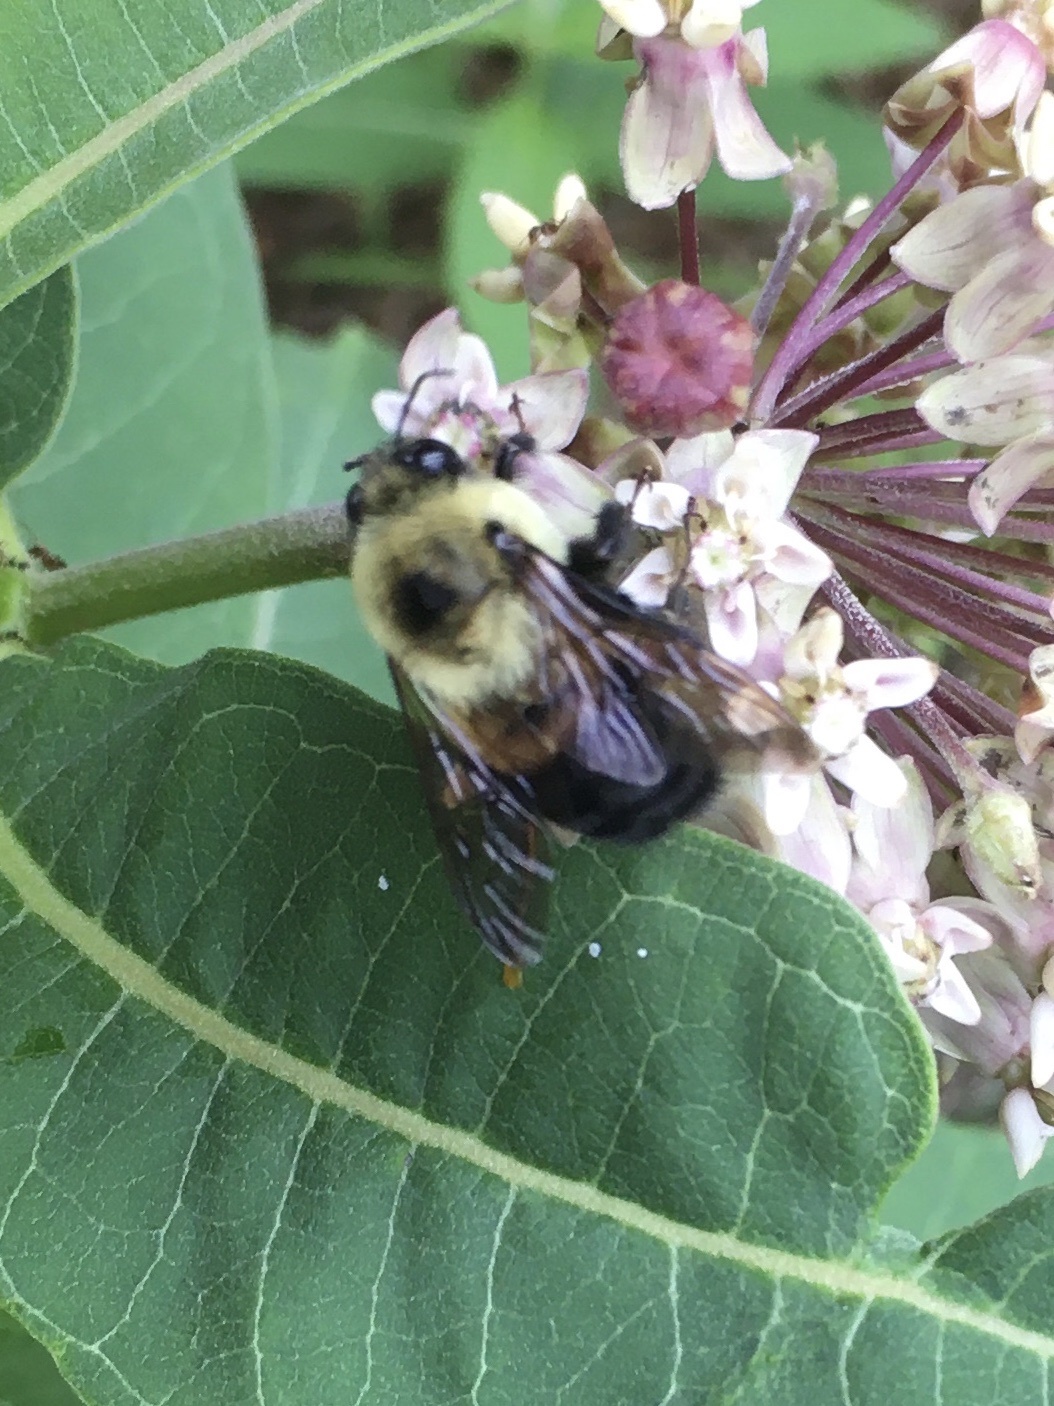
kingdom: Animalia
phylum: Arthropoda
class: Insecta
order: Hymenoptera
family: Apidae
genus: Bombus
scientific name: Bombus griseocollis
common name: Brown-belted bumble bee
